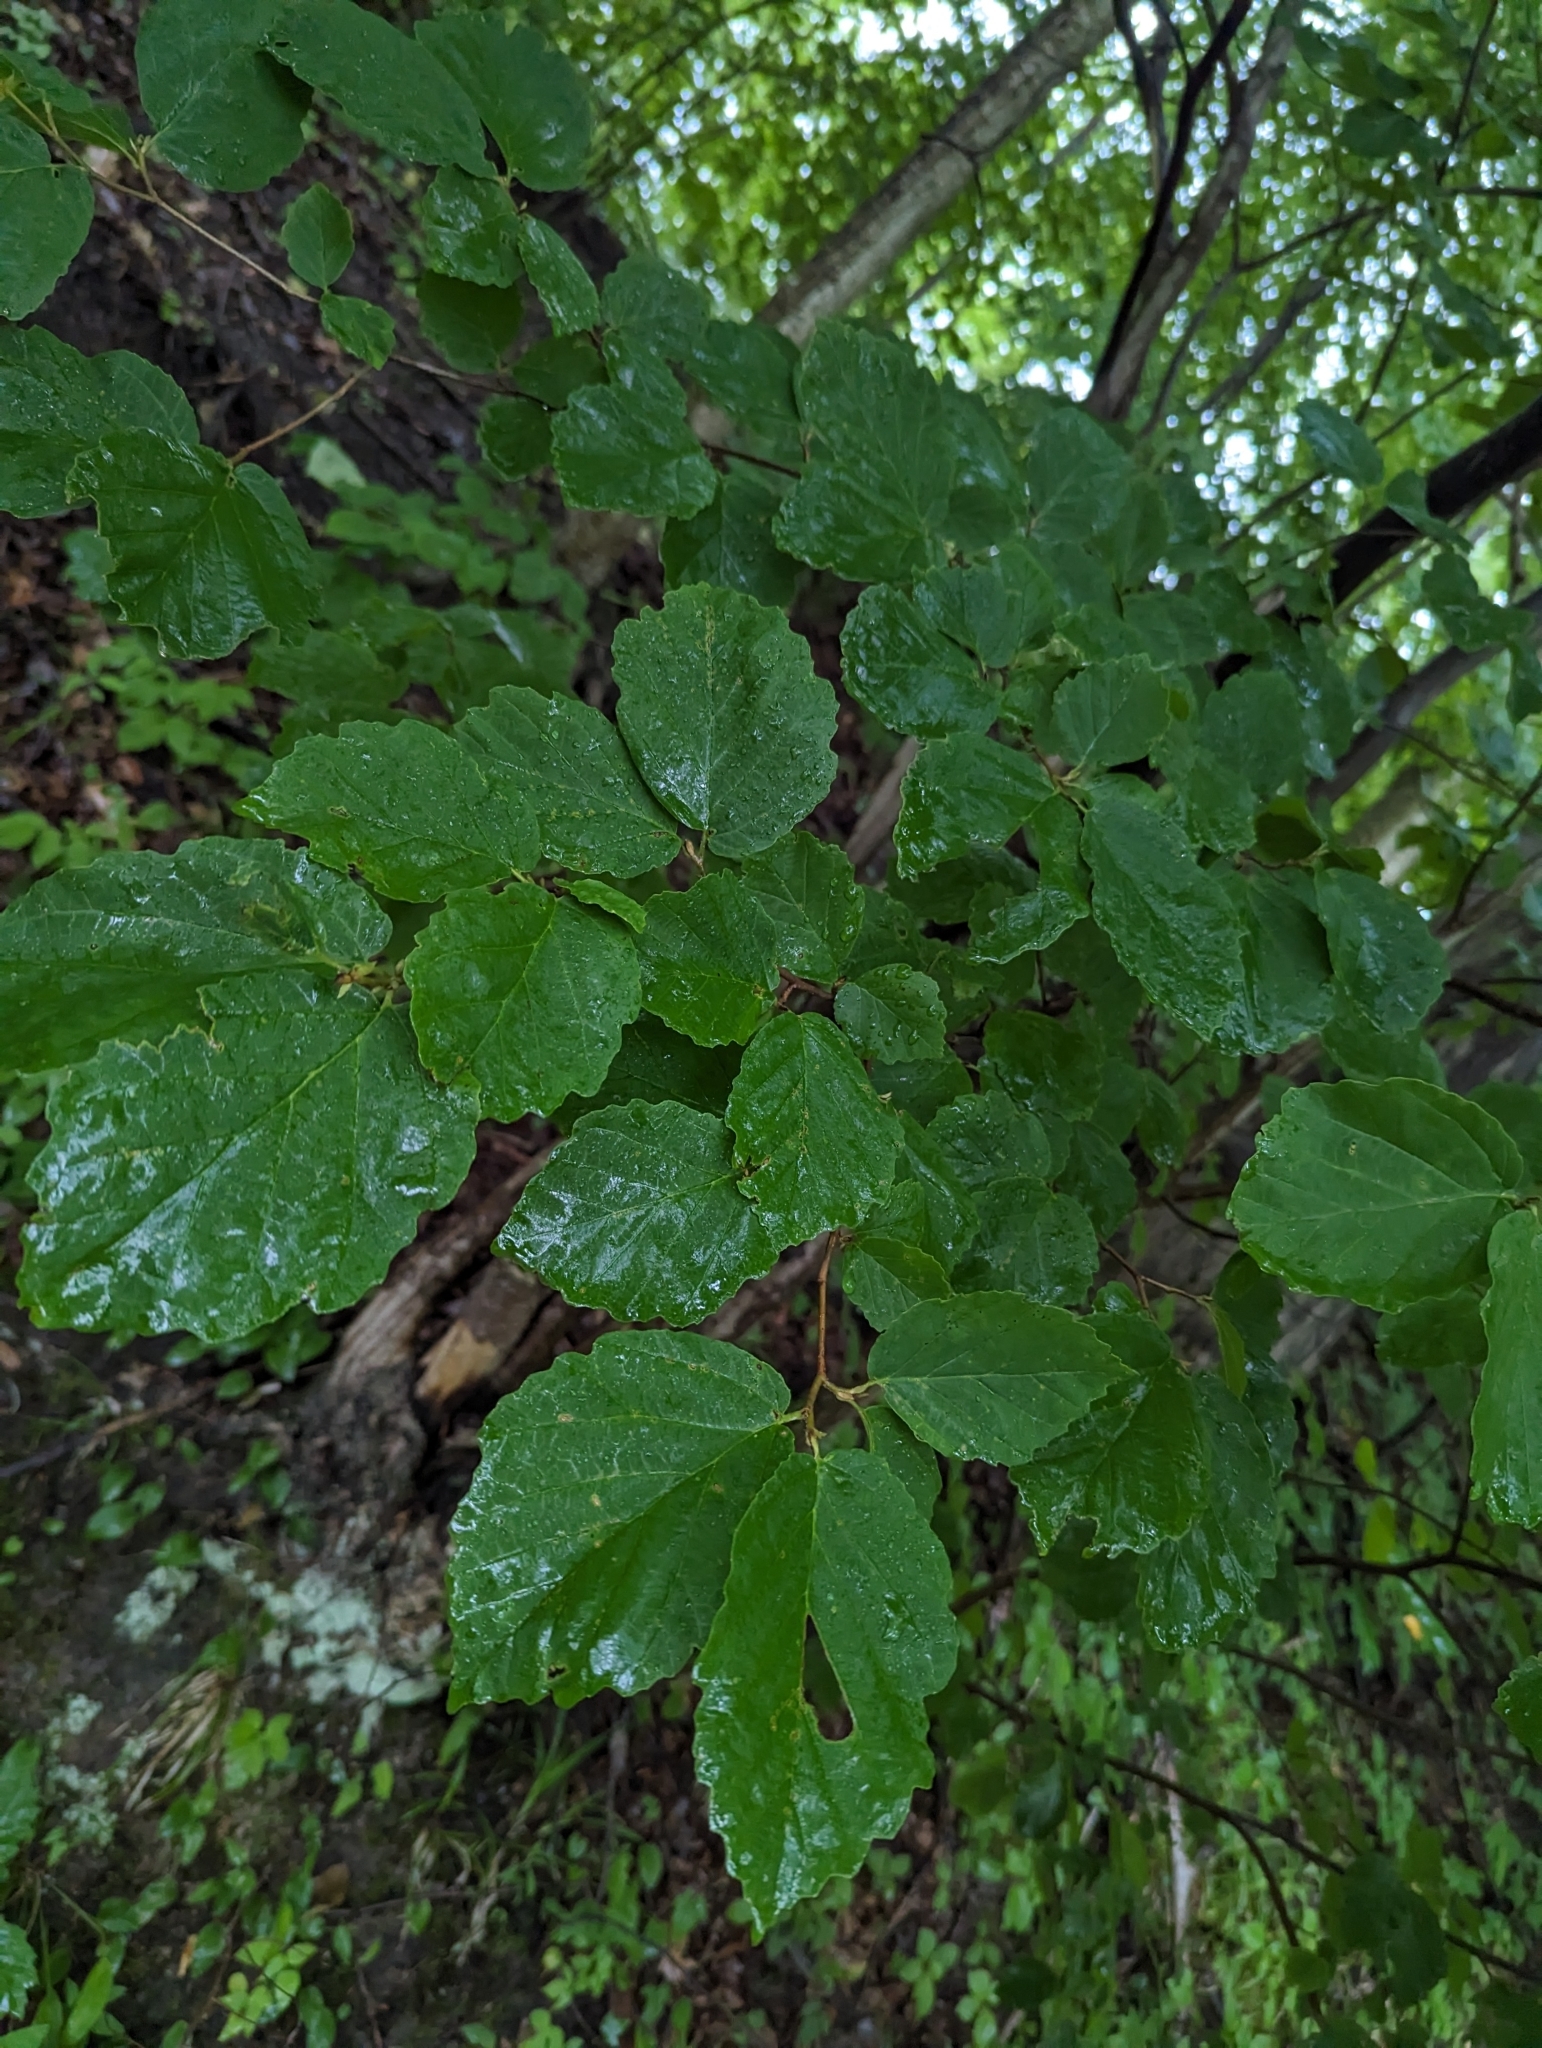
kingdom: Plantae
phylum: Tracheophyta
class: Magnoliopsida
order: Saxifragales
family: Hamamelidaceae
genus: Hamamelis
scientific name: Hamamelis virginiana
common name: Witch-hazel
